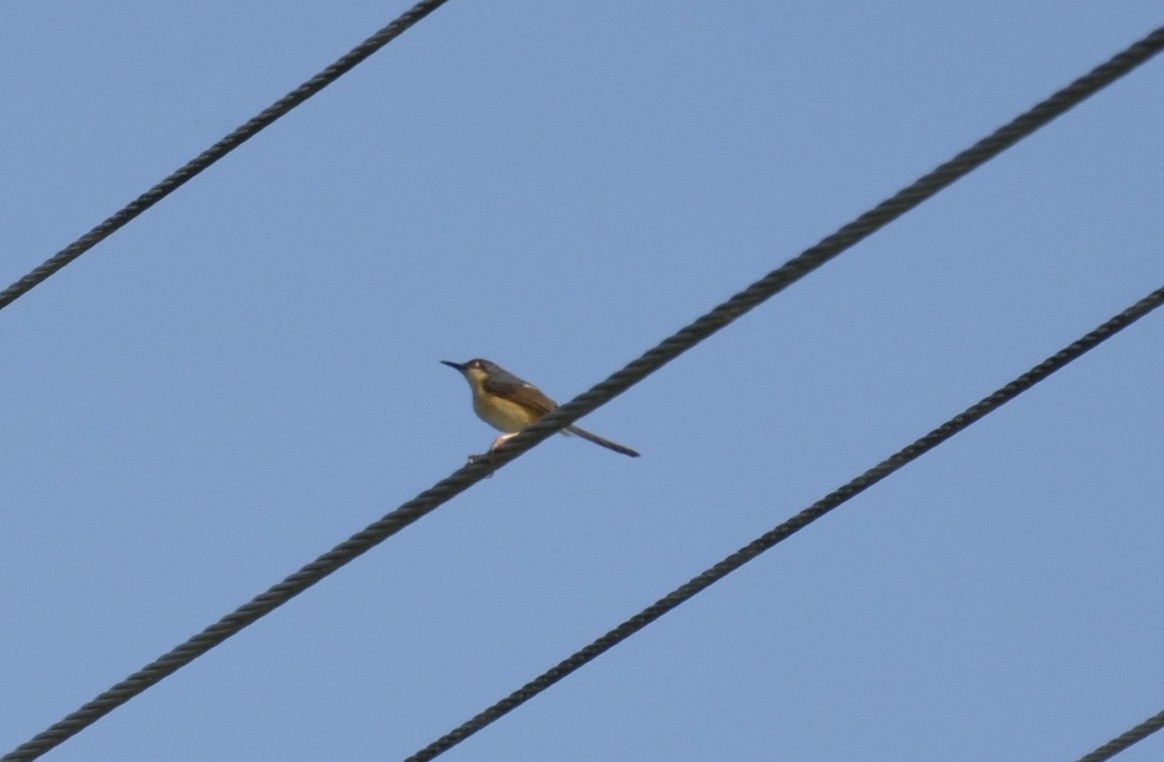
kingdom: Animalia
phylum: Chordata
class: Aves
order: Passeriformes
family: Cisticolidae
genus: Prinia
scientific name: Prinia socialis
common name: Ashy prinia
